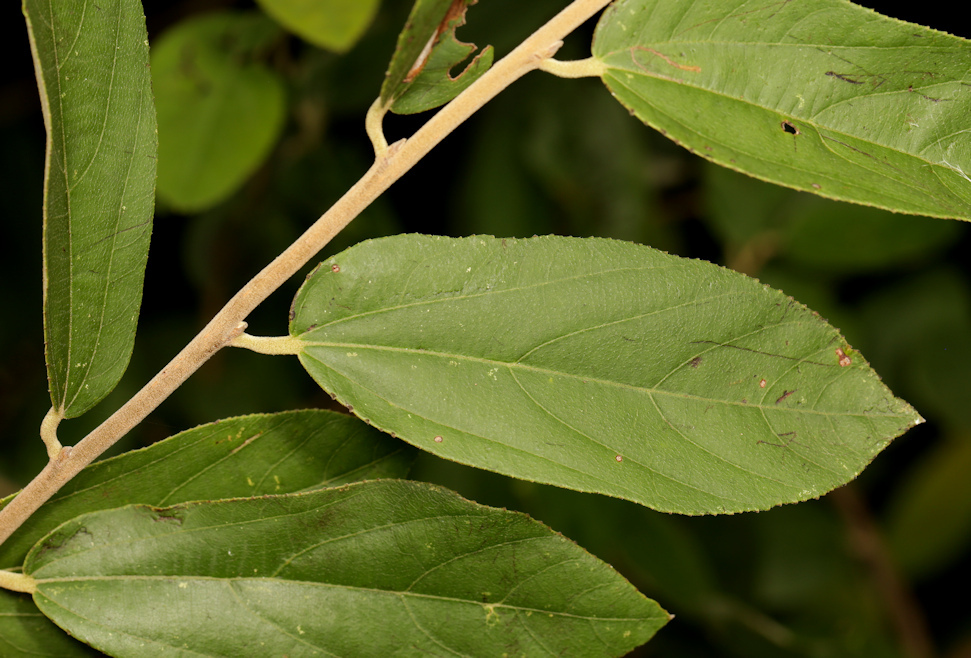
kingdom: Plantae
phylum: Tracheophyta
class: Magnoliopsida
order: Malvales
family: Malvaceae
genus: Grewia
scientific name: Grewia bicolor
